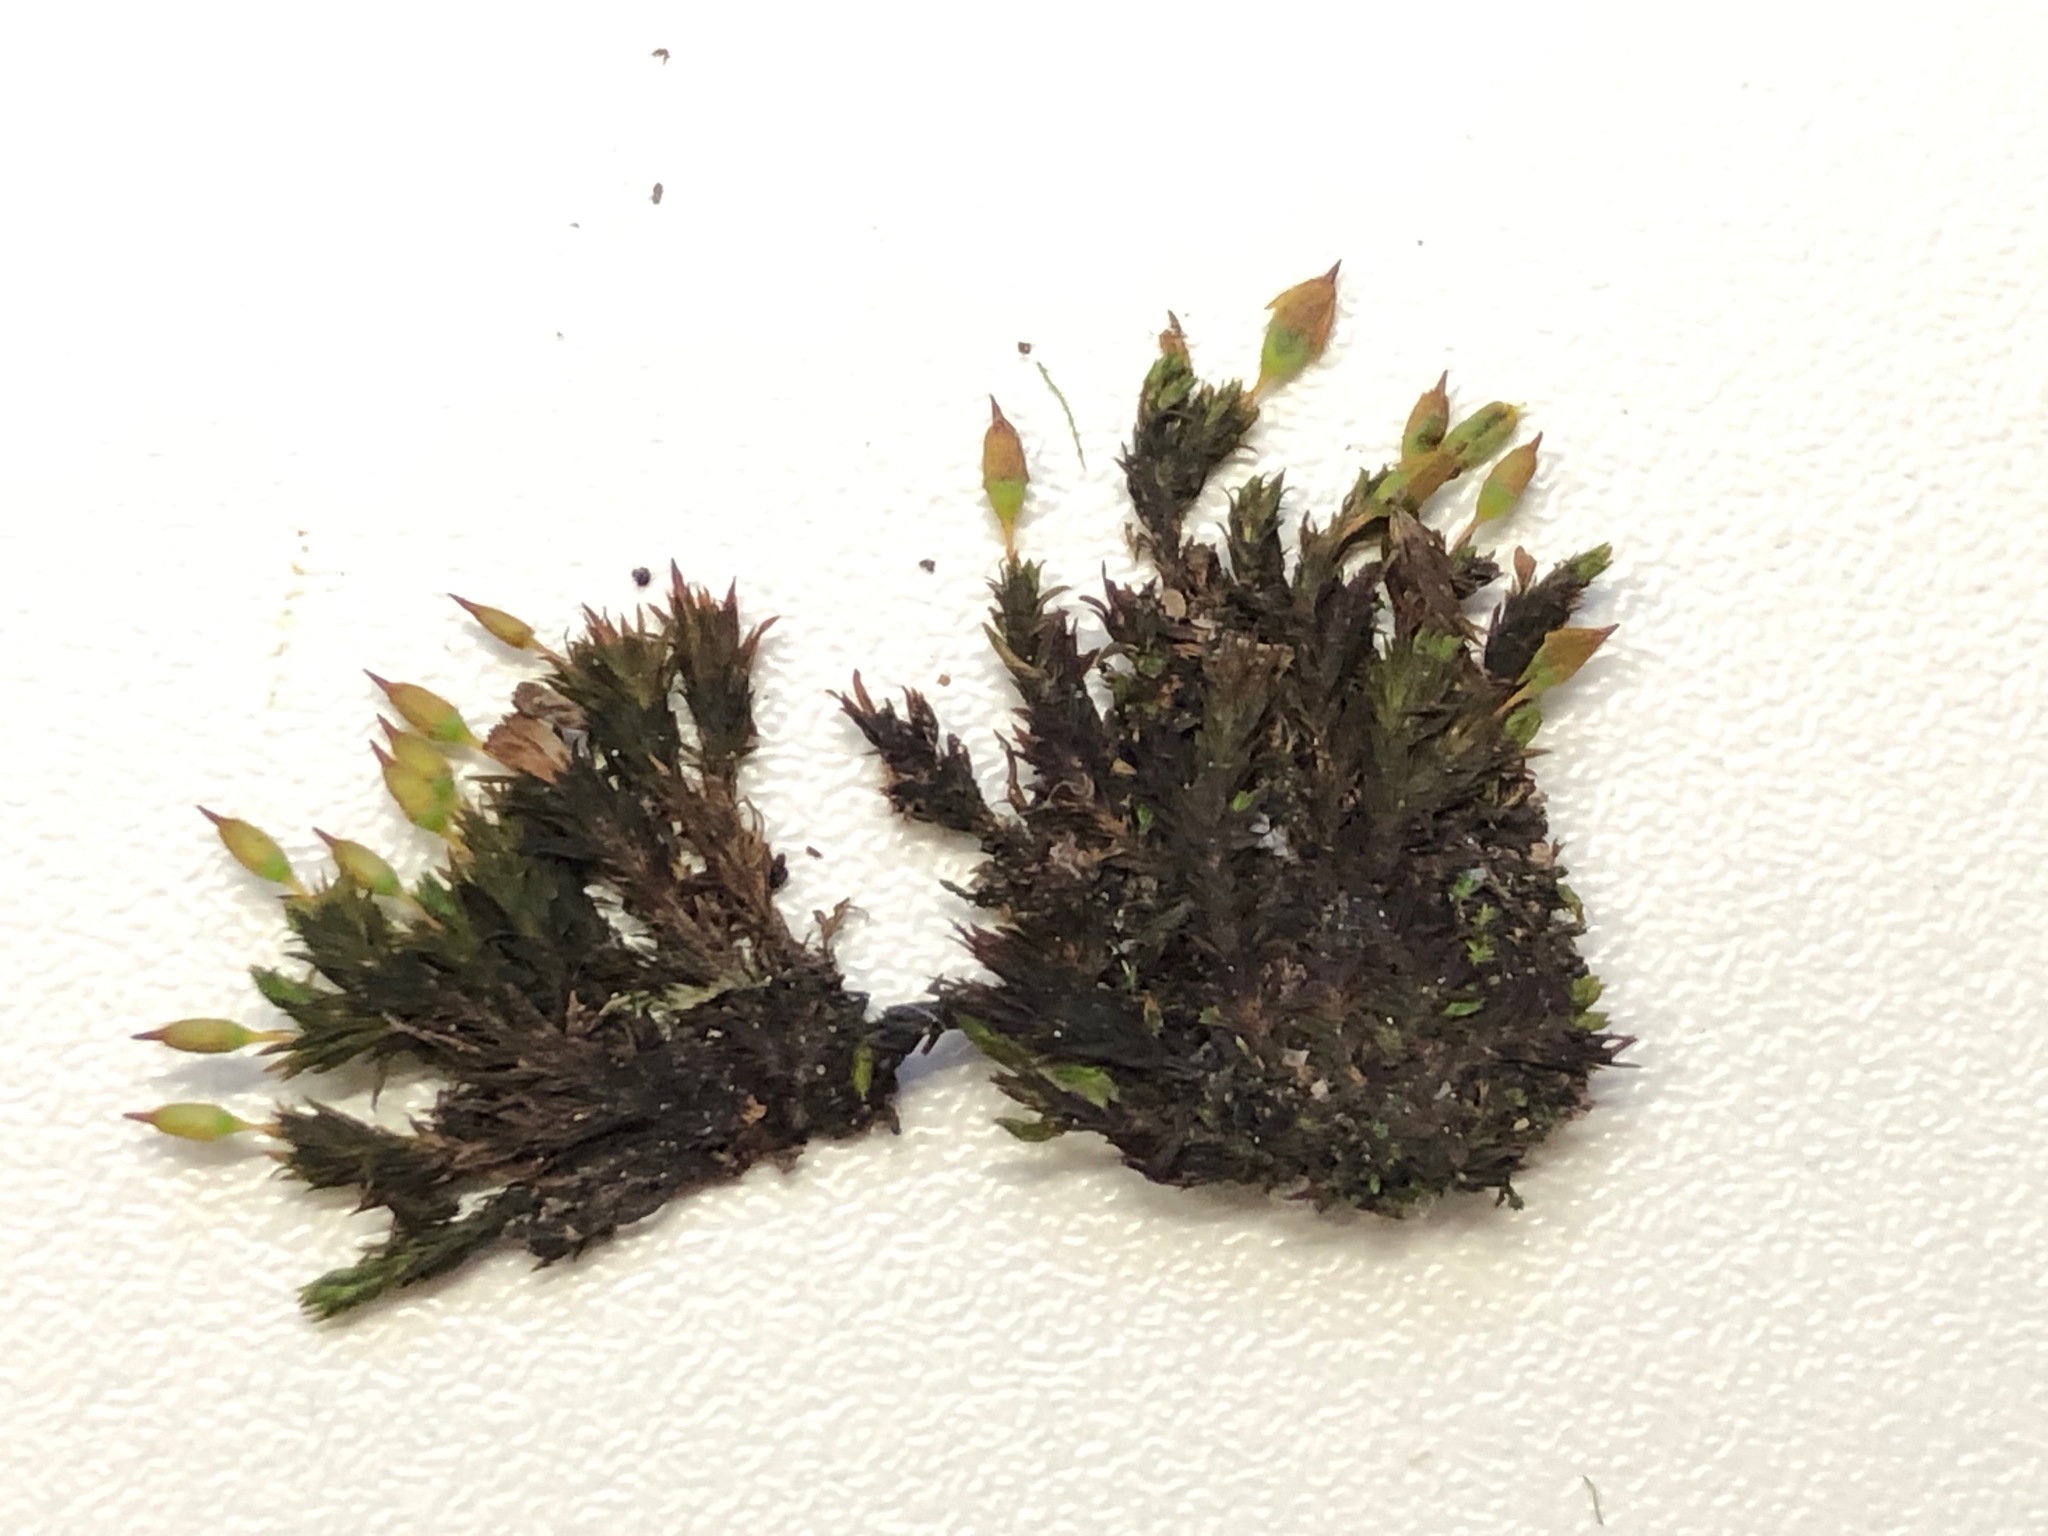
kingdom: Plantae
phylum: Bryophyta
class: Bryopsida
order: Orthotrichales
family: Orthotrichaceae
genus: Orthotrichum
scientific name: Orthotrichum anomalum
